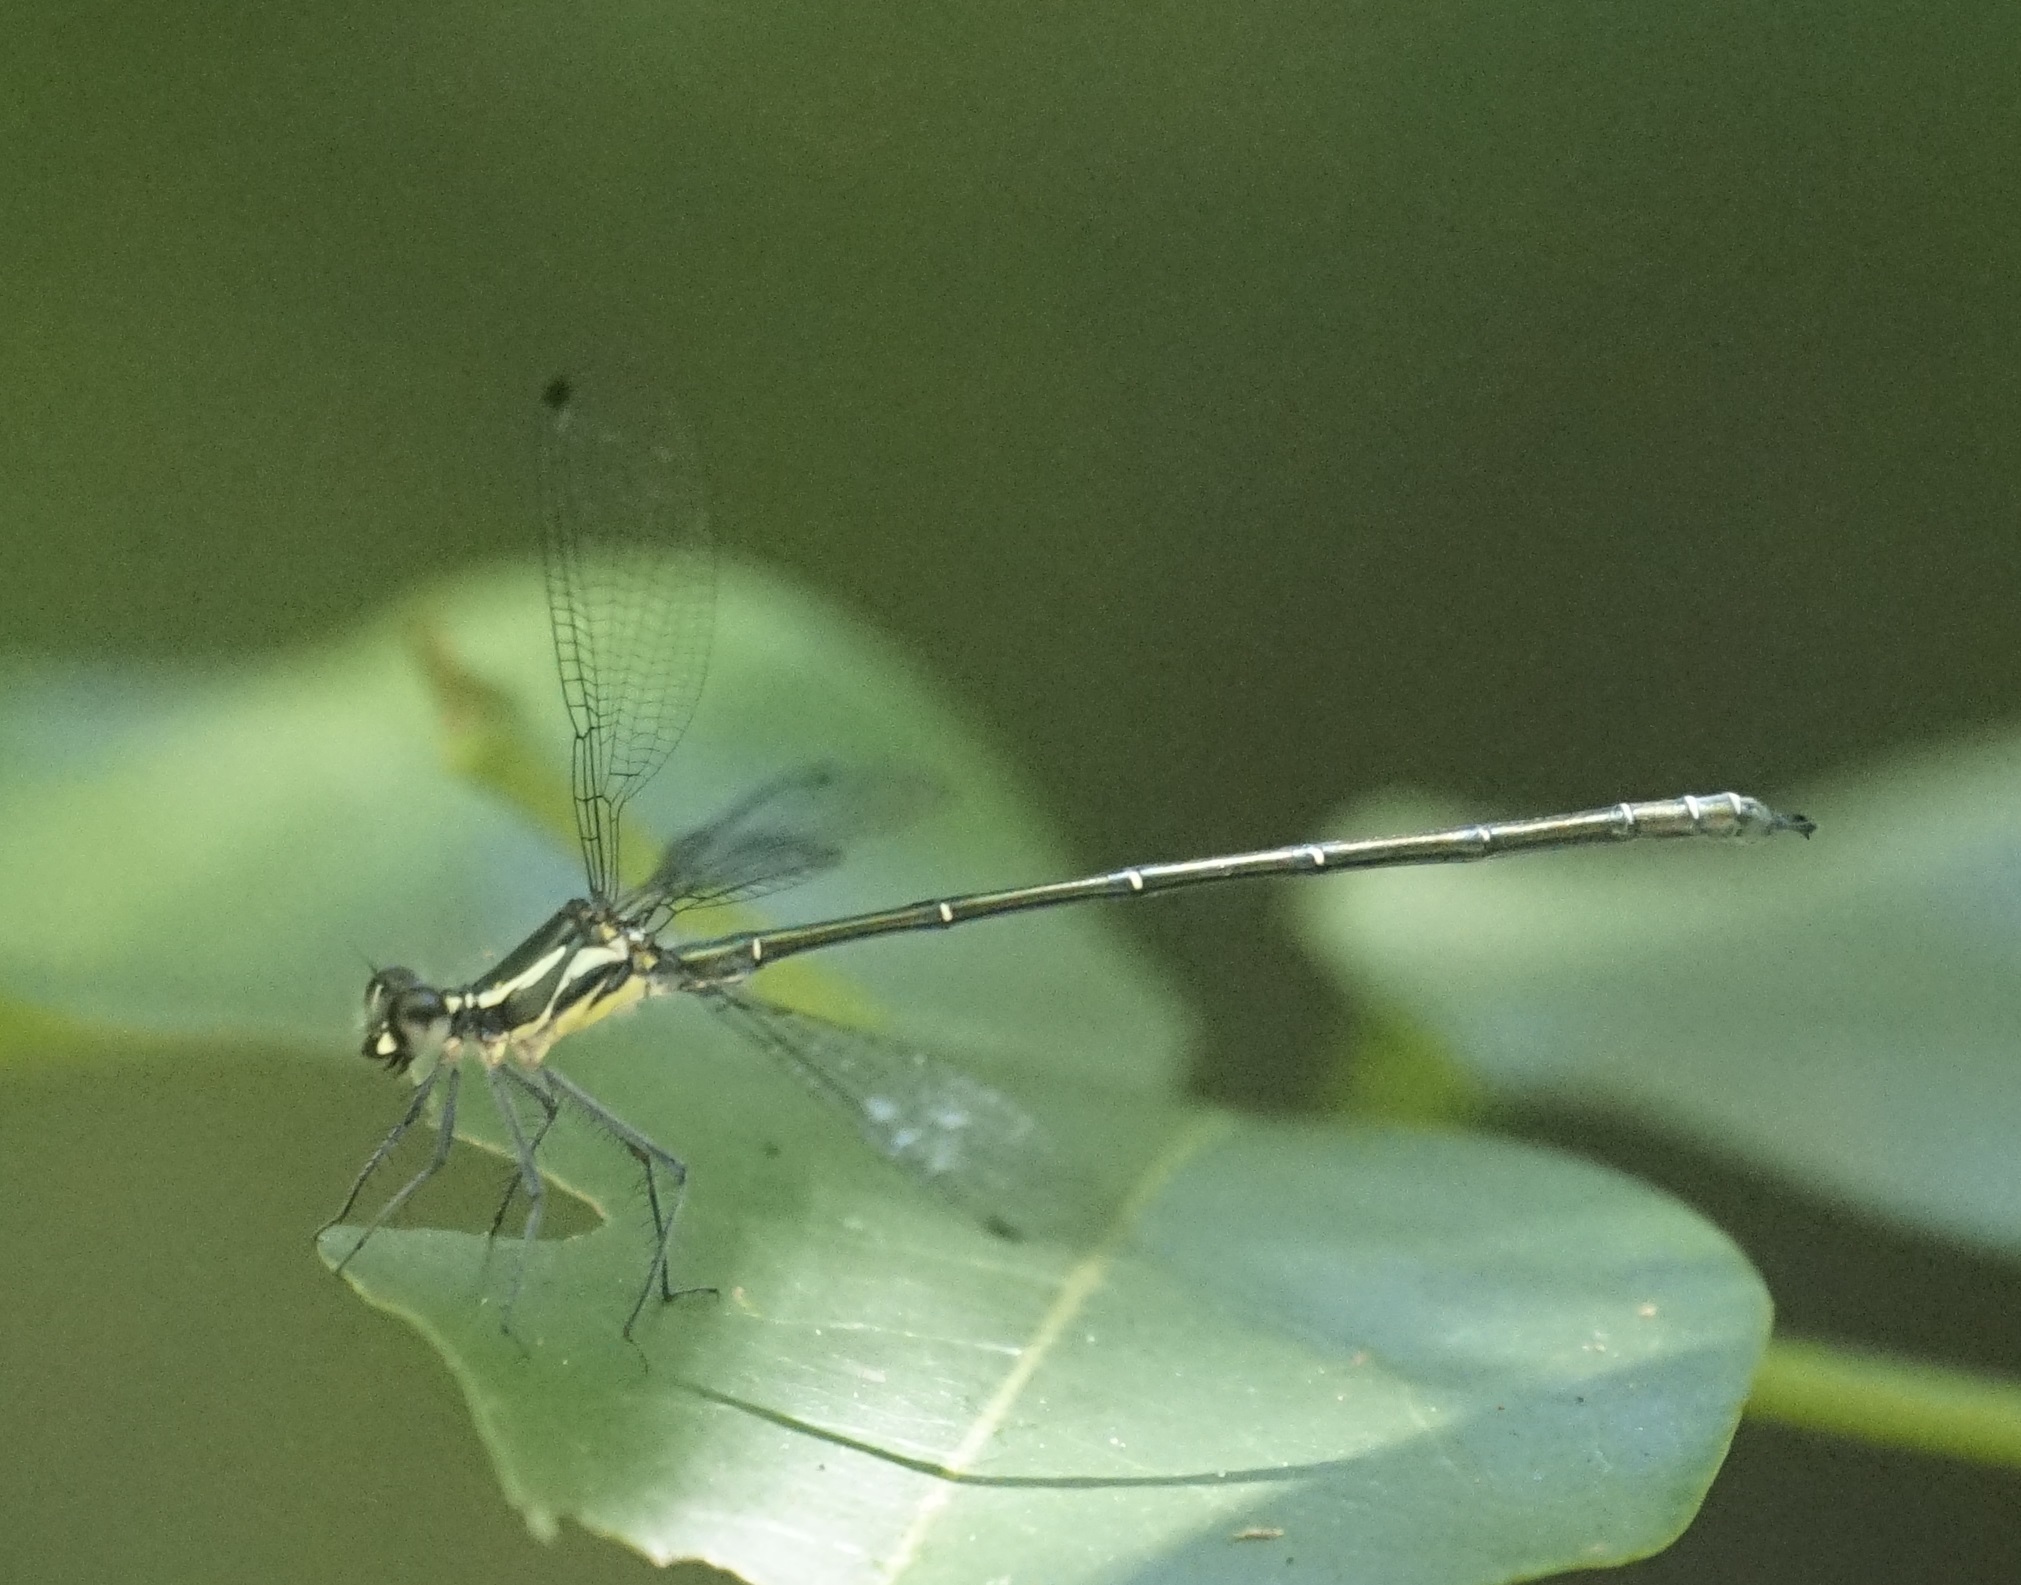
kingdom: Animalia
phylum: Arthropoda
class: Insecta
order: Odonata
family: Argiolestidae
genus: Austroargiolestes
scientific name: Austroargiolestes icteromelas
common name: Common flatwing
